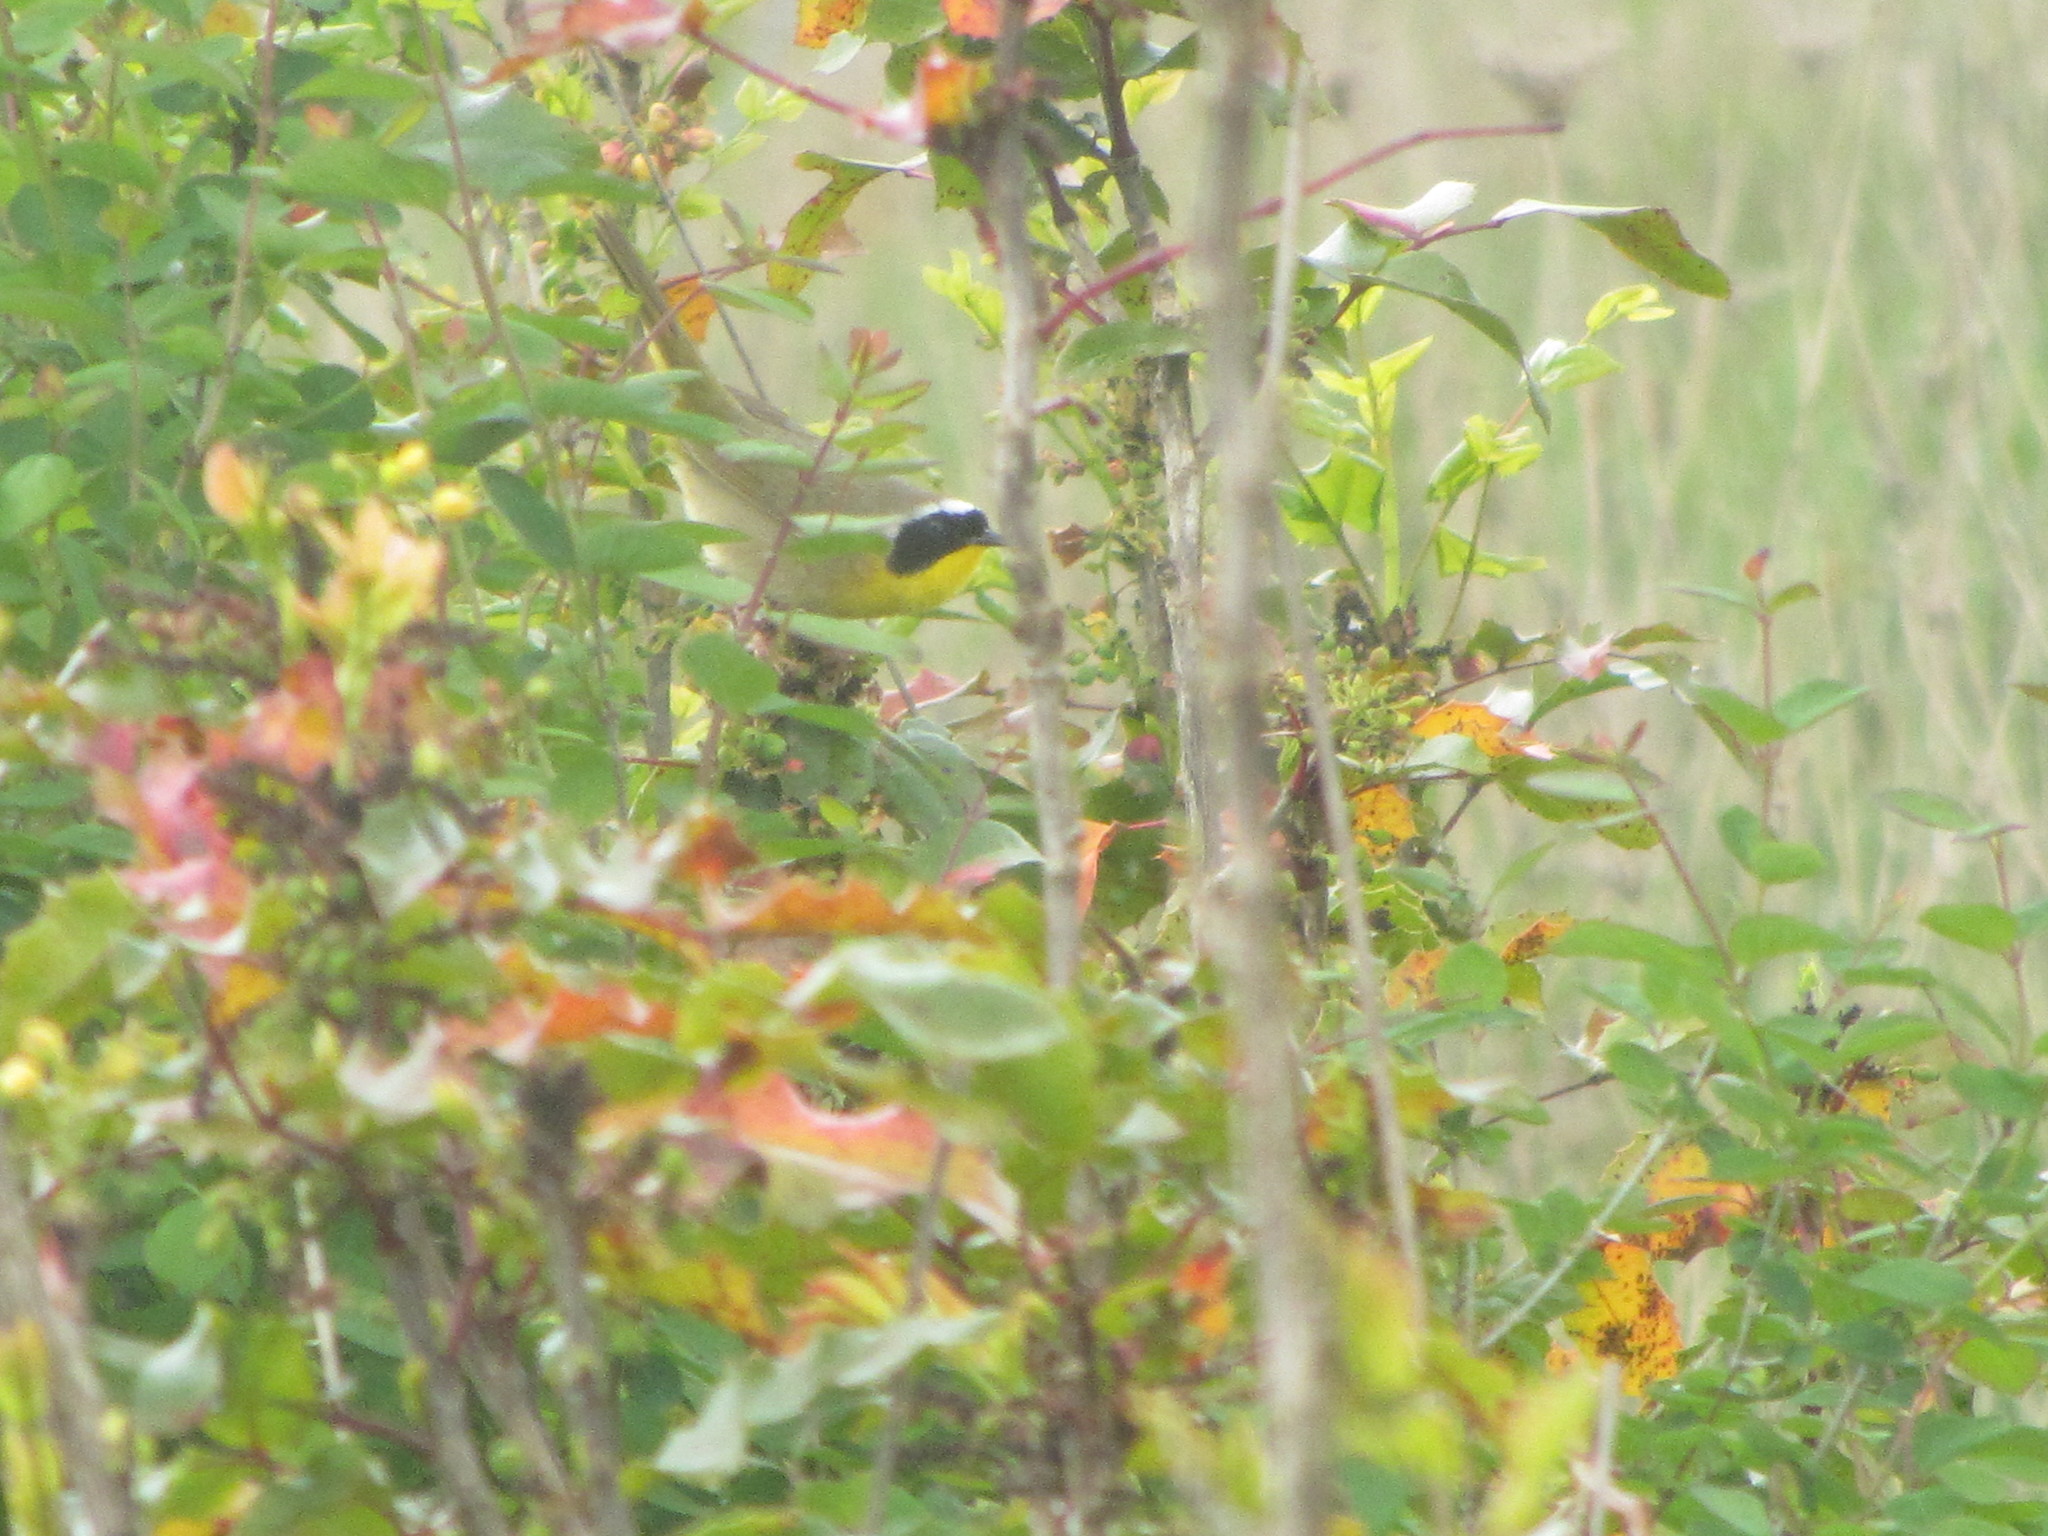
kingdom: Animalia
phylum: Chordata
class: Aves
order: Passeriformes
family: Parulidae
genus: Geothlypis
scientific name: Geothlypis trichas
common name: Common yellowthroat
